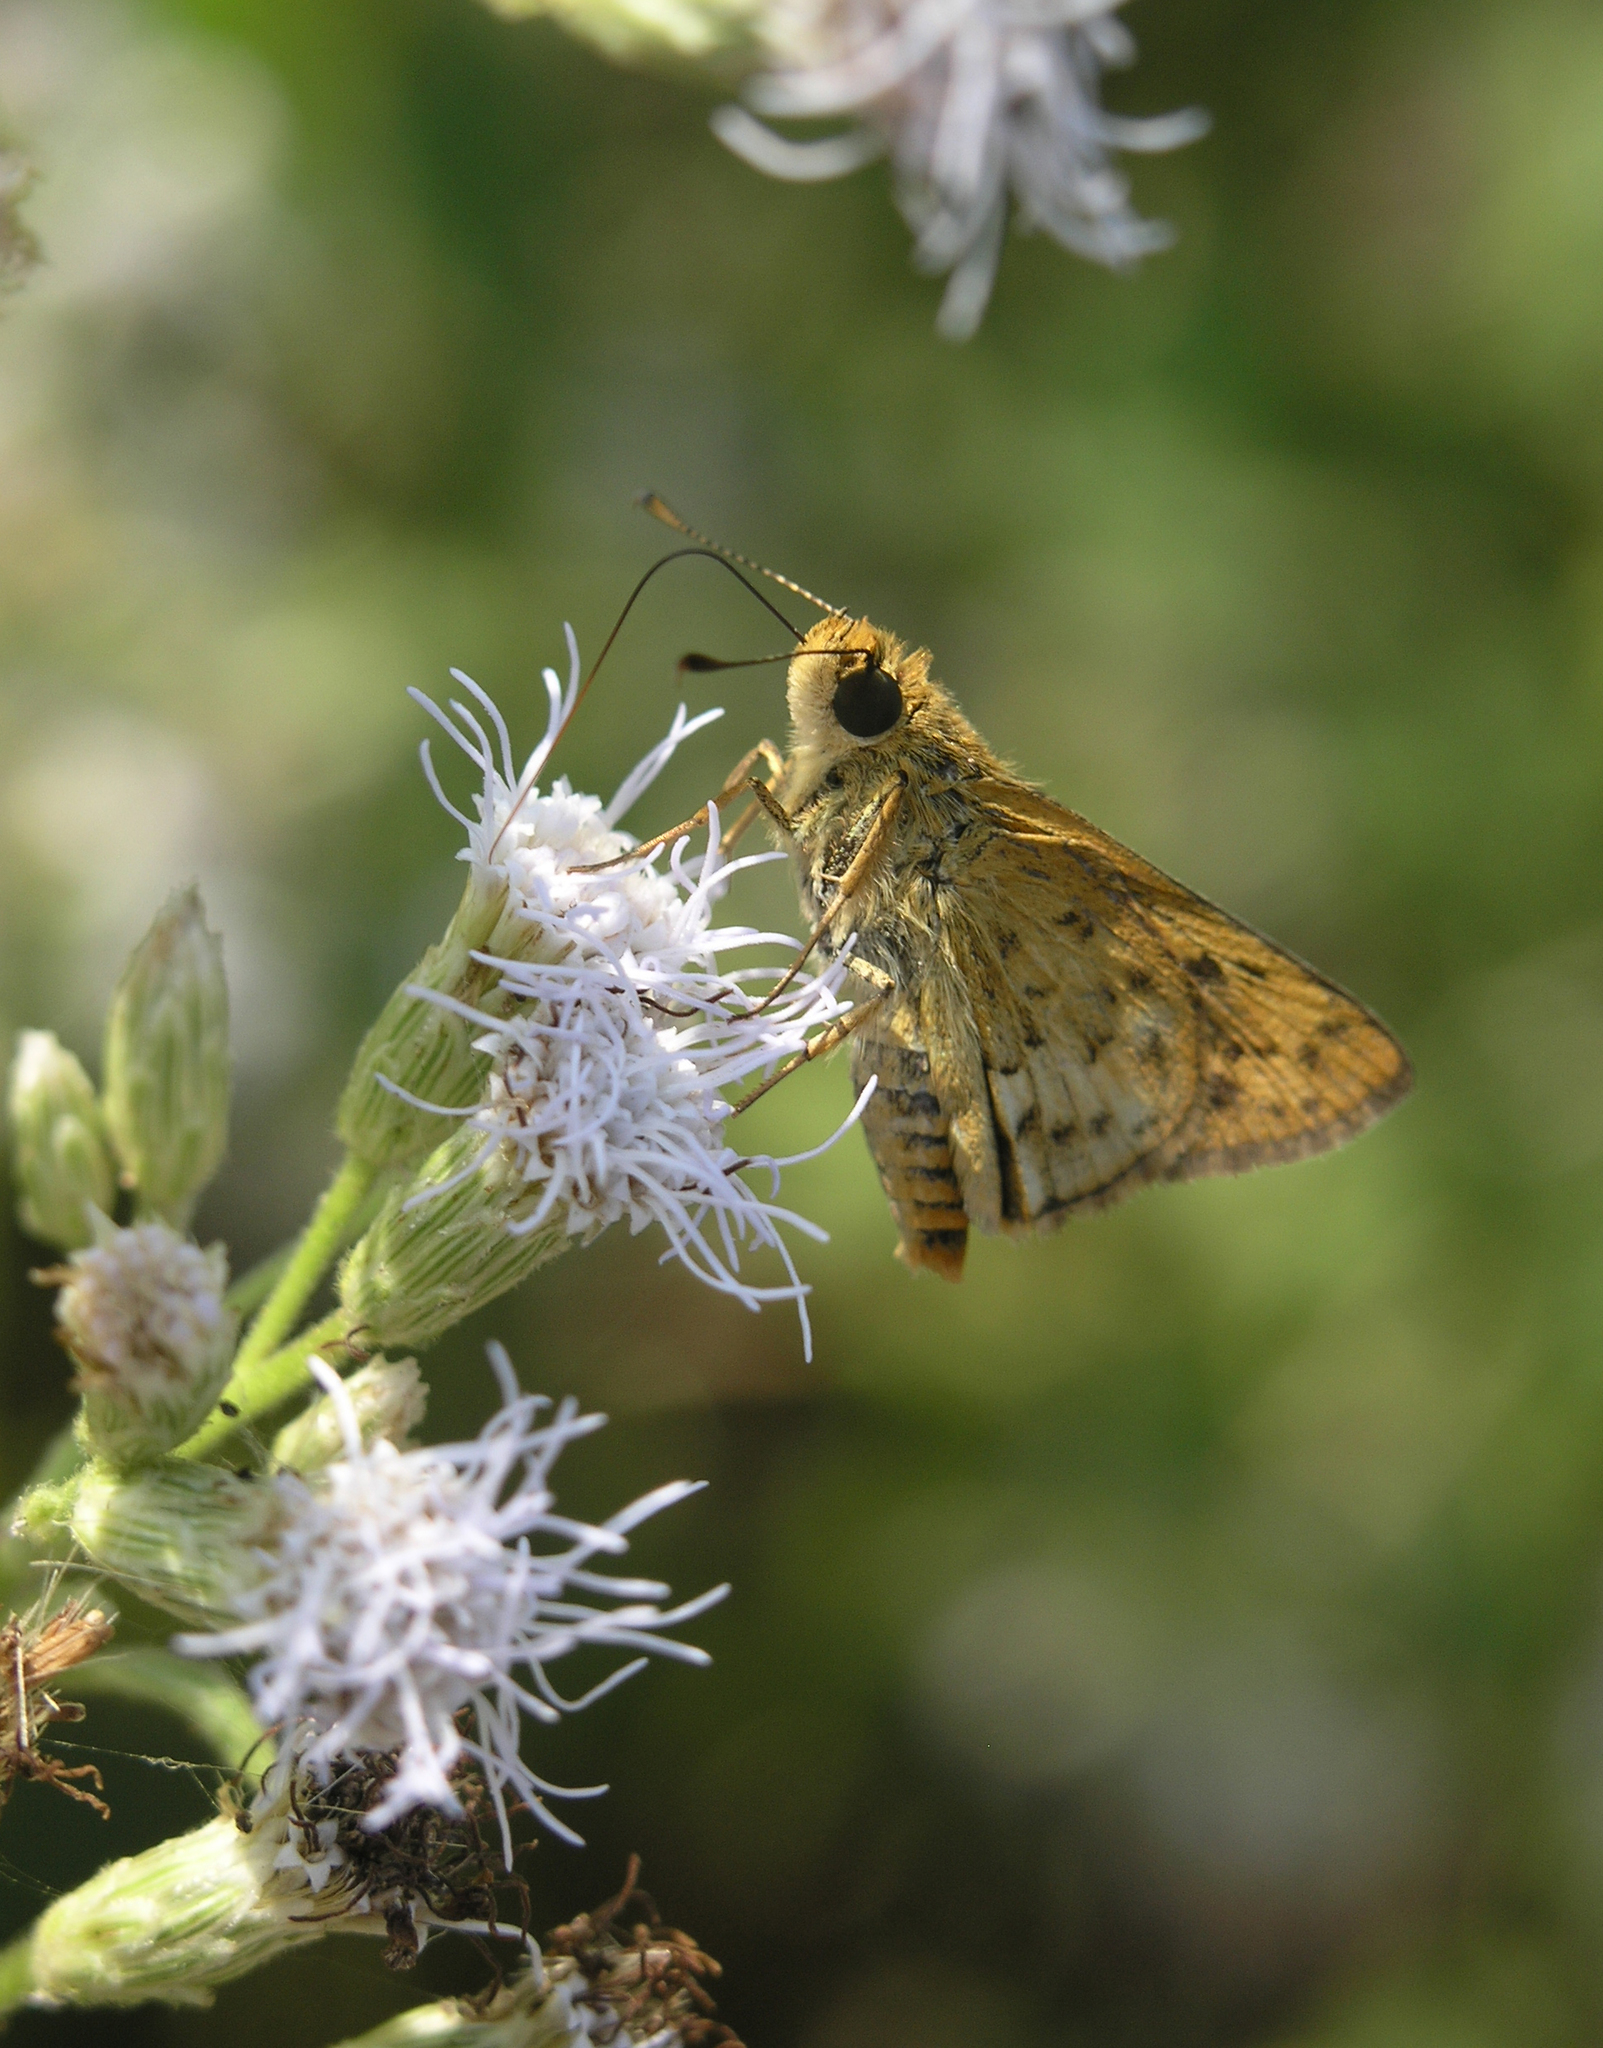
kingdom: Plantae
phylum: Tracheophyta
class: Magnoliopsida
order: Asterales
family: Asteraceae
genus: Chromolaena
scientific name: Chromolaena odorata
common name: Siamweed
